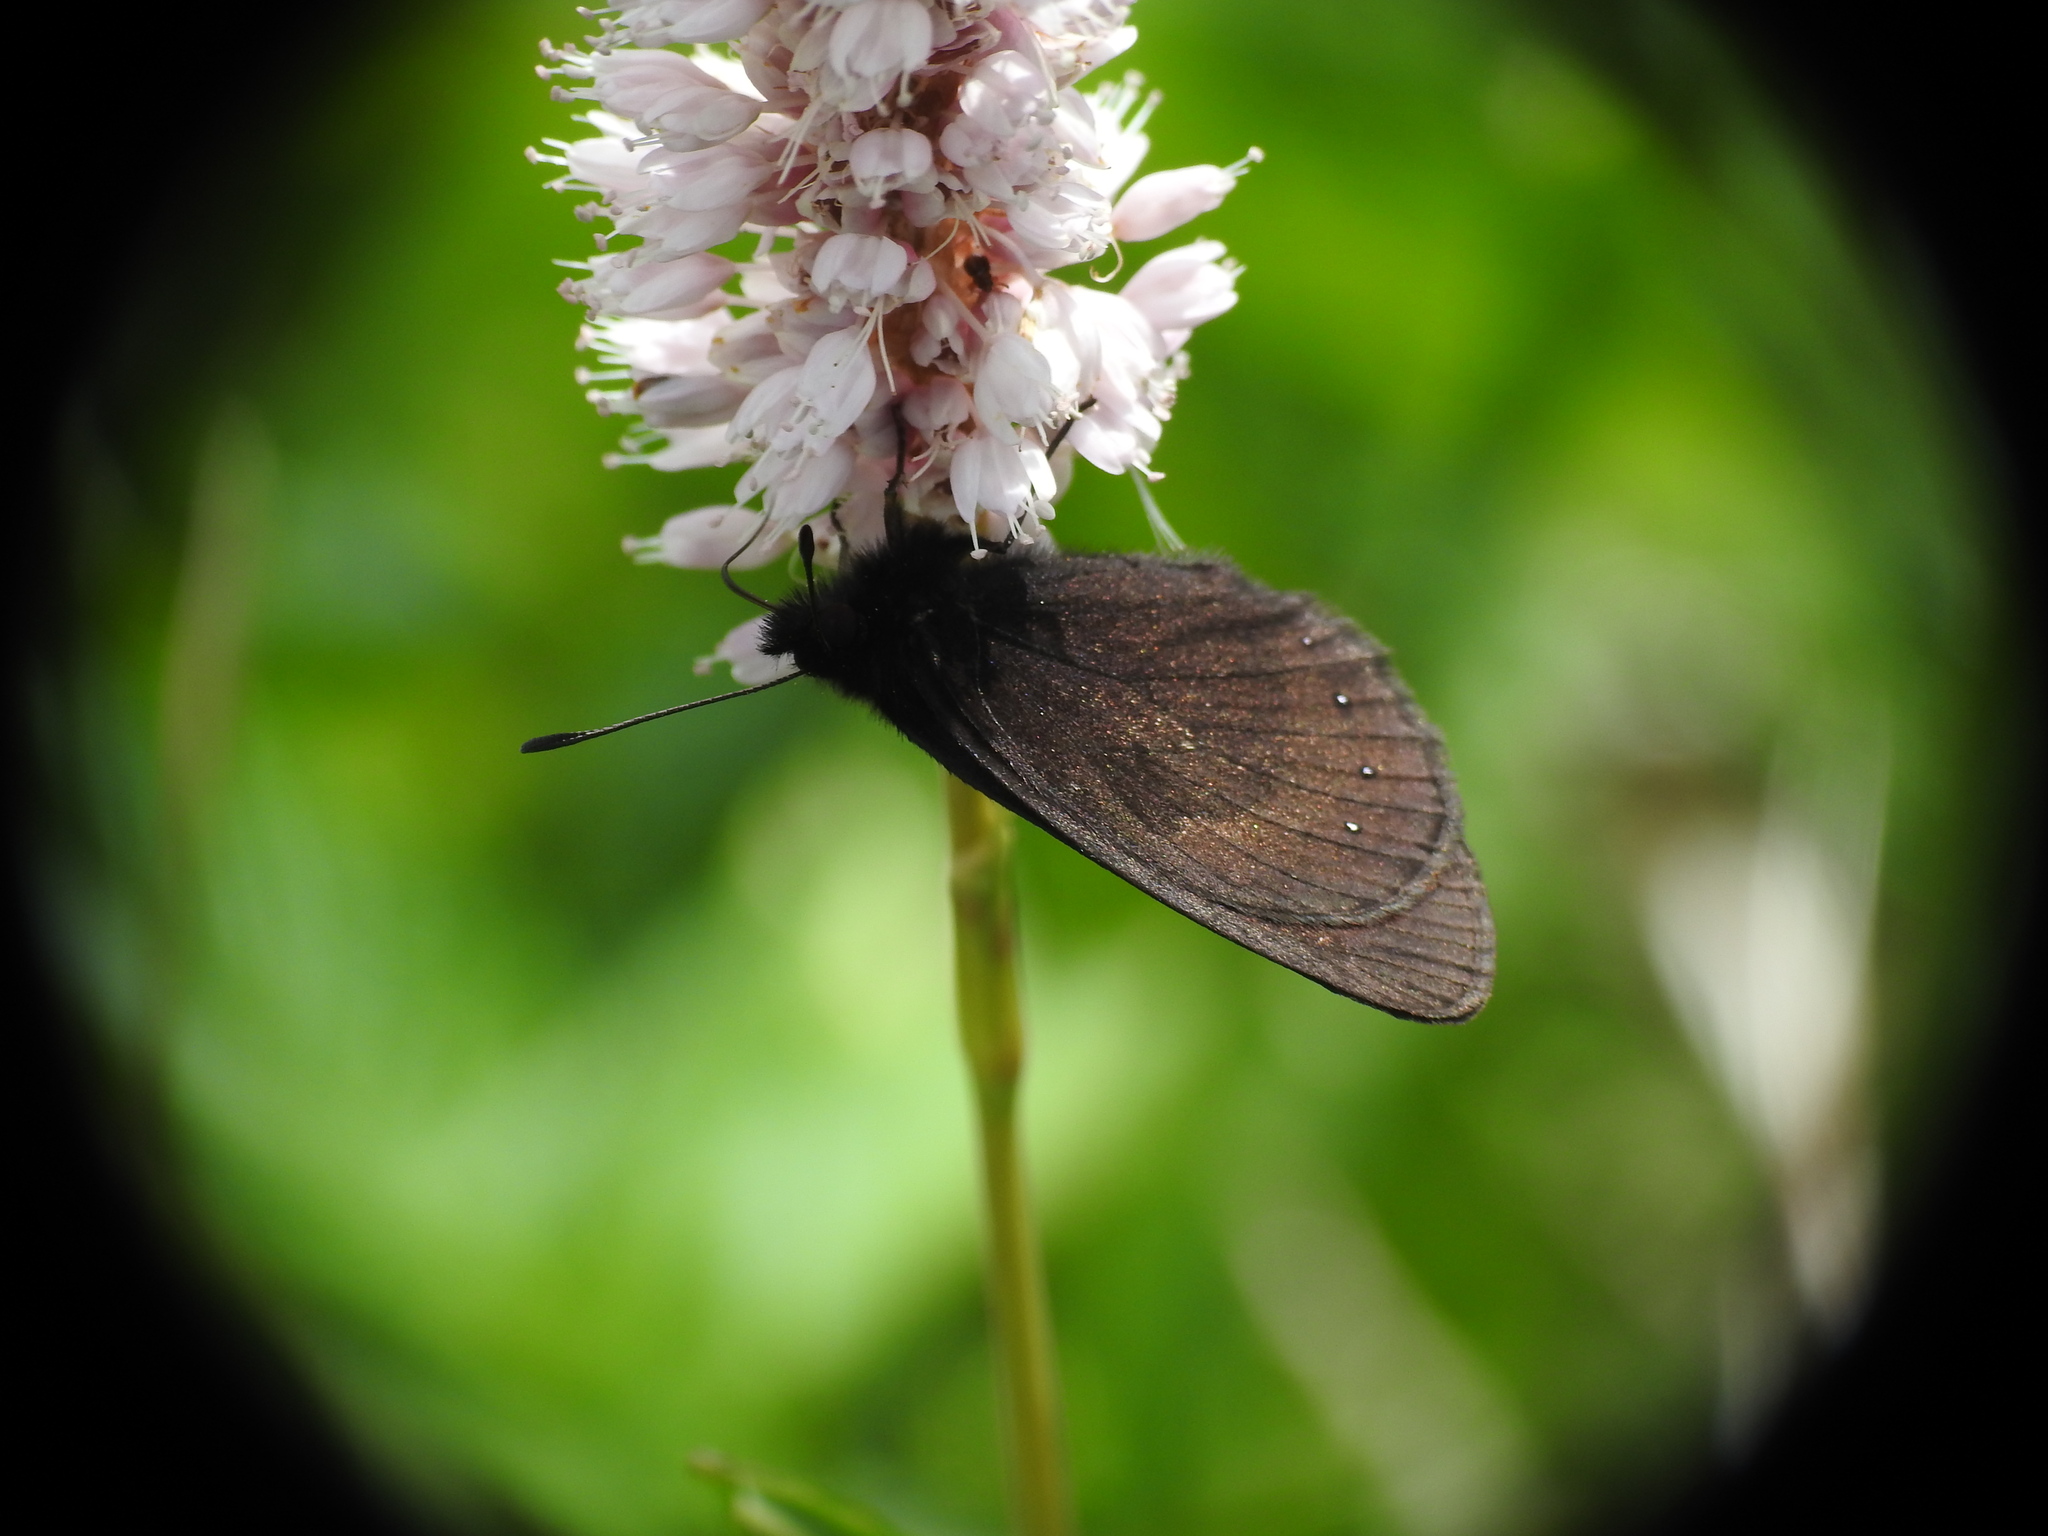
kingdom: Animalia
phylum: Arthropoda
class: Insecta
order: Lepidoptera
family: Nymphalidae
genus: Erebia
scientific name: Erebia meolans
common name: Piedmont ringlet
